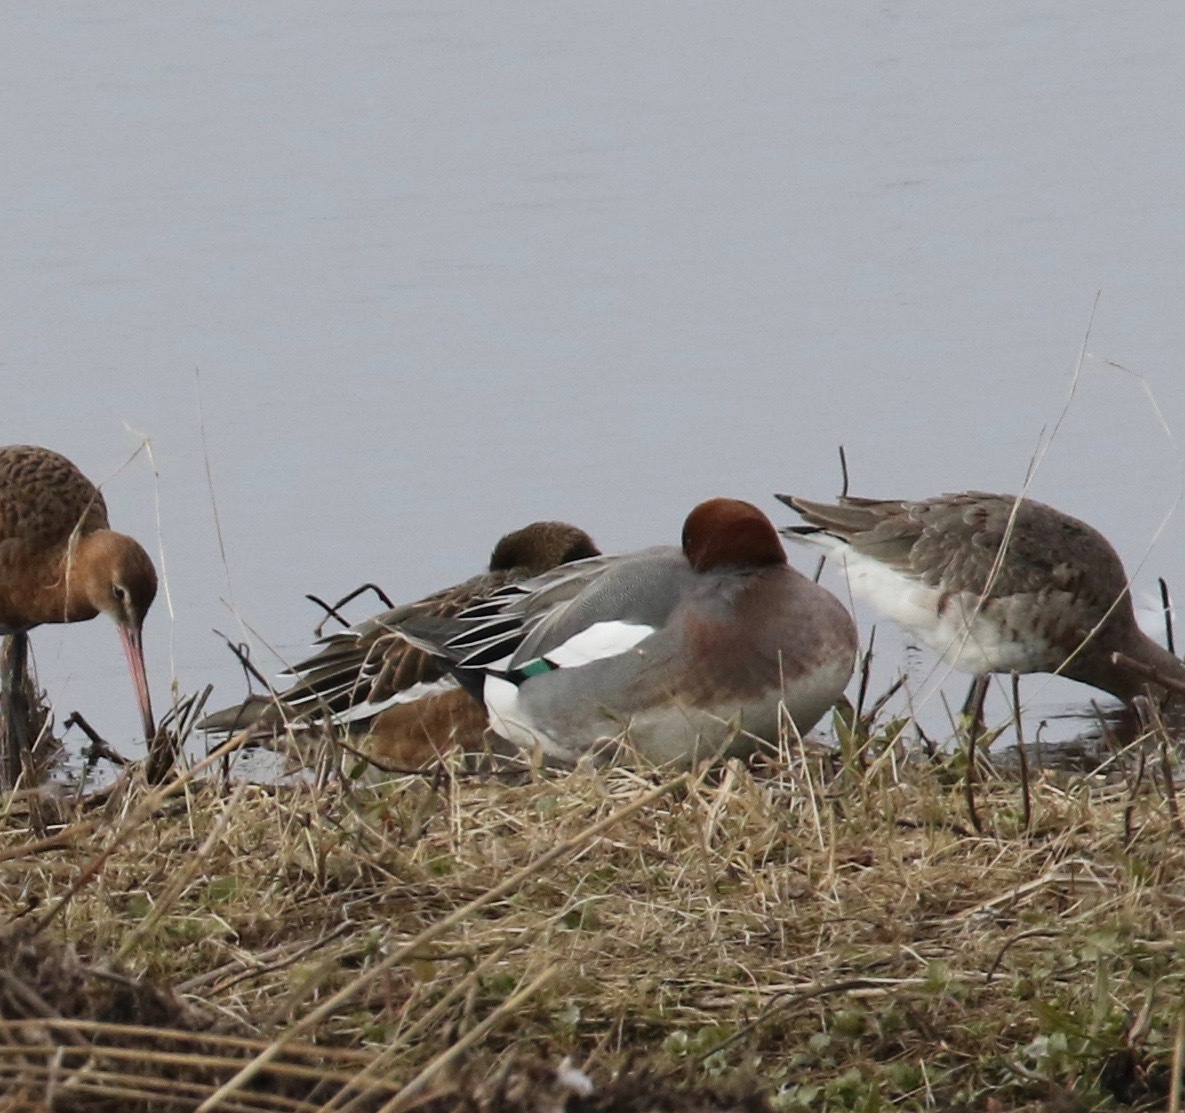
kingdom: Animalia
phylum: Chordata
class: Aves
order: Anseriformes
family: Anatidae
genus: Mareca
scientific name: Mareca penelope
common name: Eurasian wigeon
